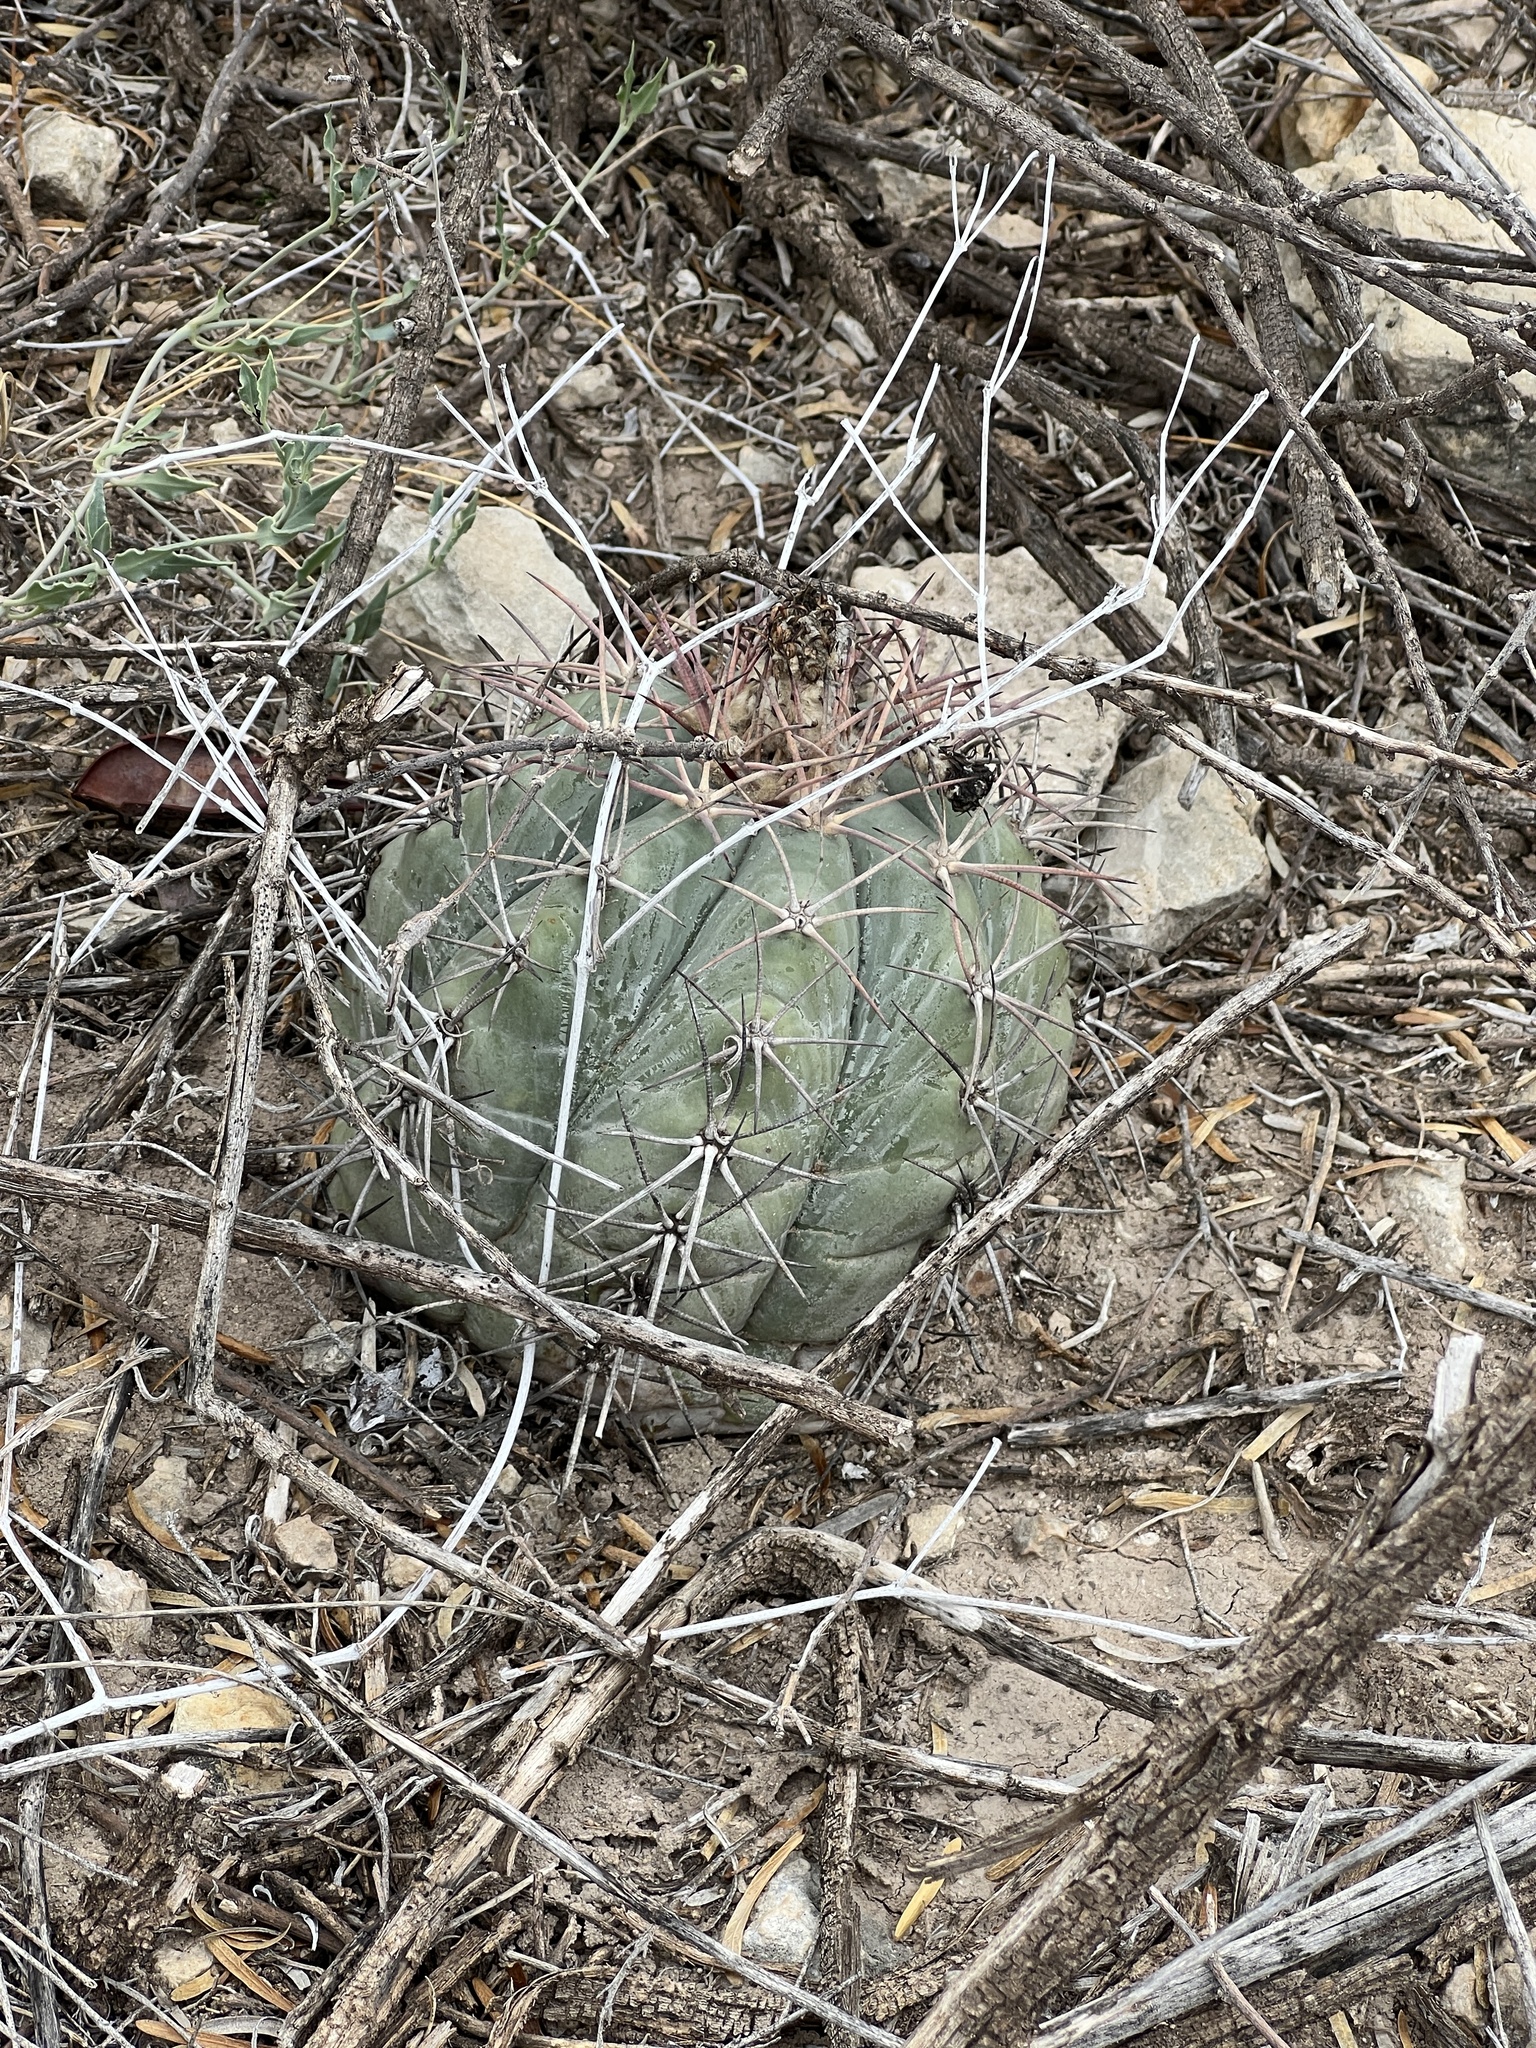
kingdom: Plantae
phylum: Tracheophyta
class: Magnoliopsida
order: Caryophyllales
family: Cactaceae
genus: Echinocactus
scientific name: Echinocactus horizonthalonius
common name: Devilshead
